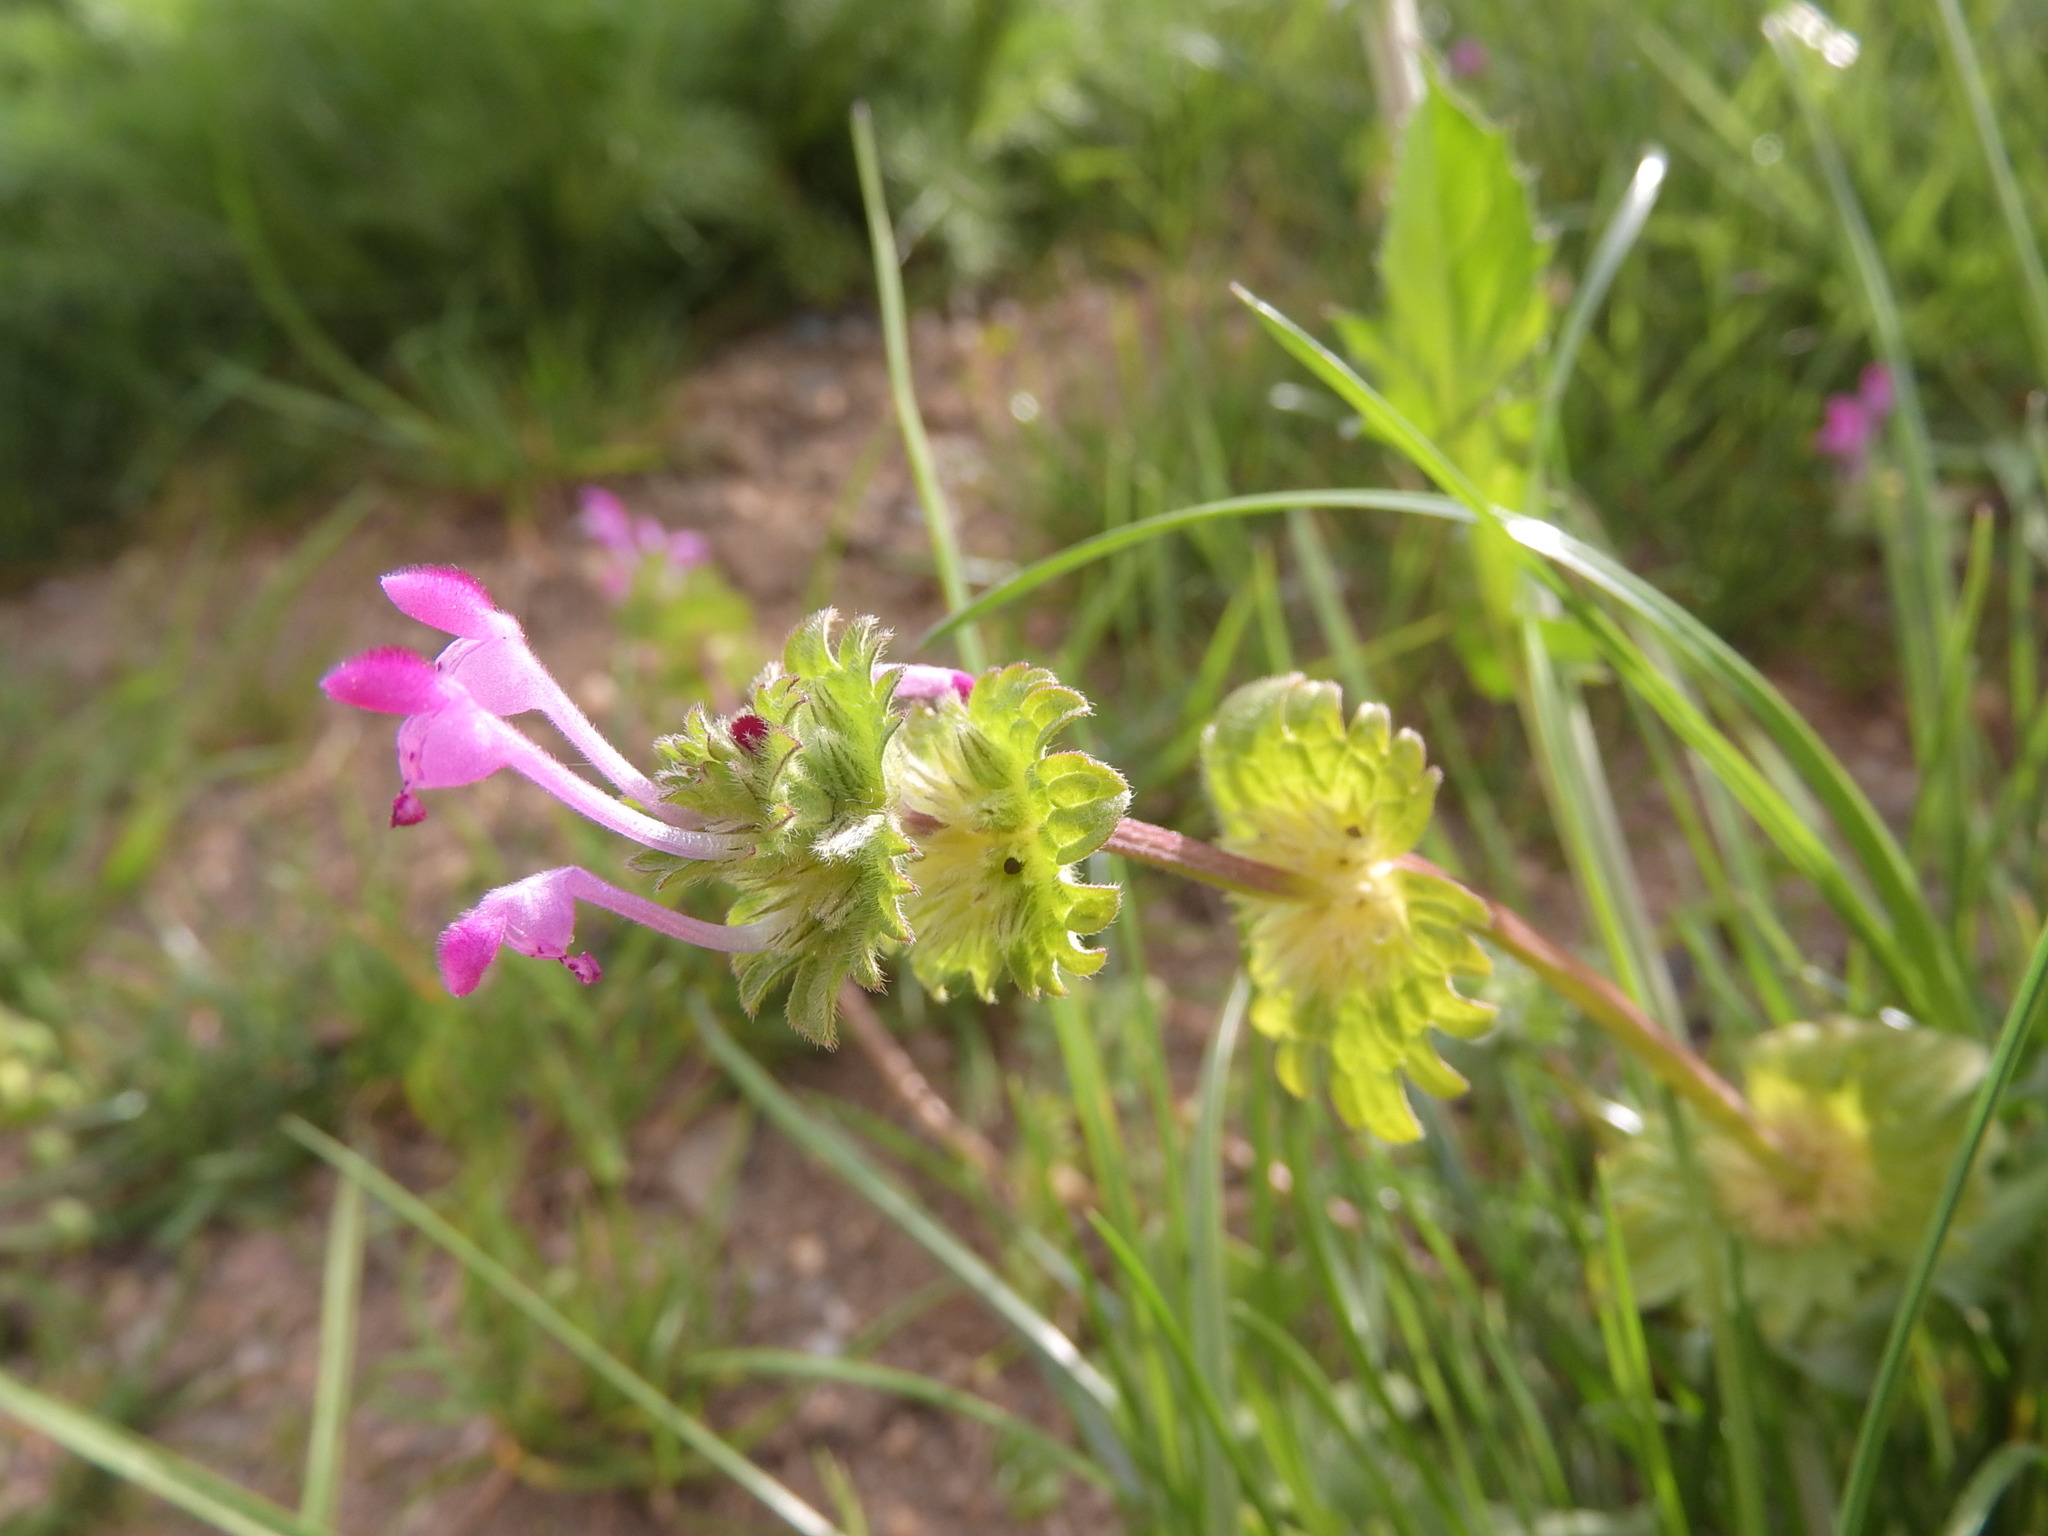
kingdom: Plantae
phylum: Tracheophyta
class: Magnoliopsida
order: Lamiales
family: Lamiaceae
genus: Lamium
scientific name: Lamium amplexicaule
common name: Henbit dead-nettle
